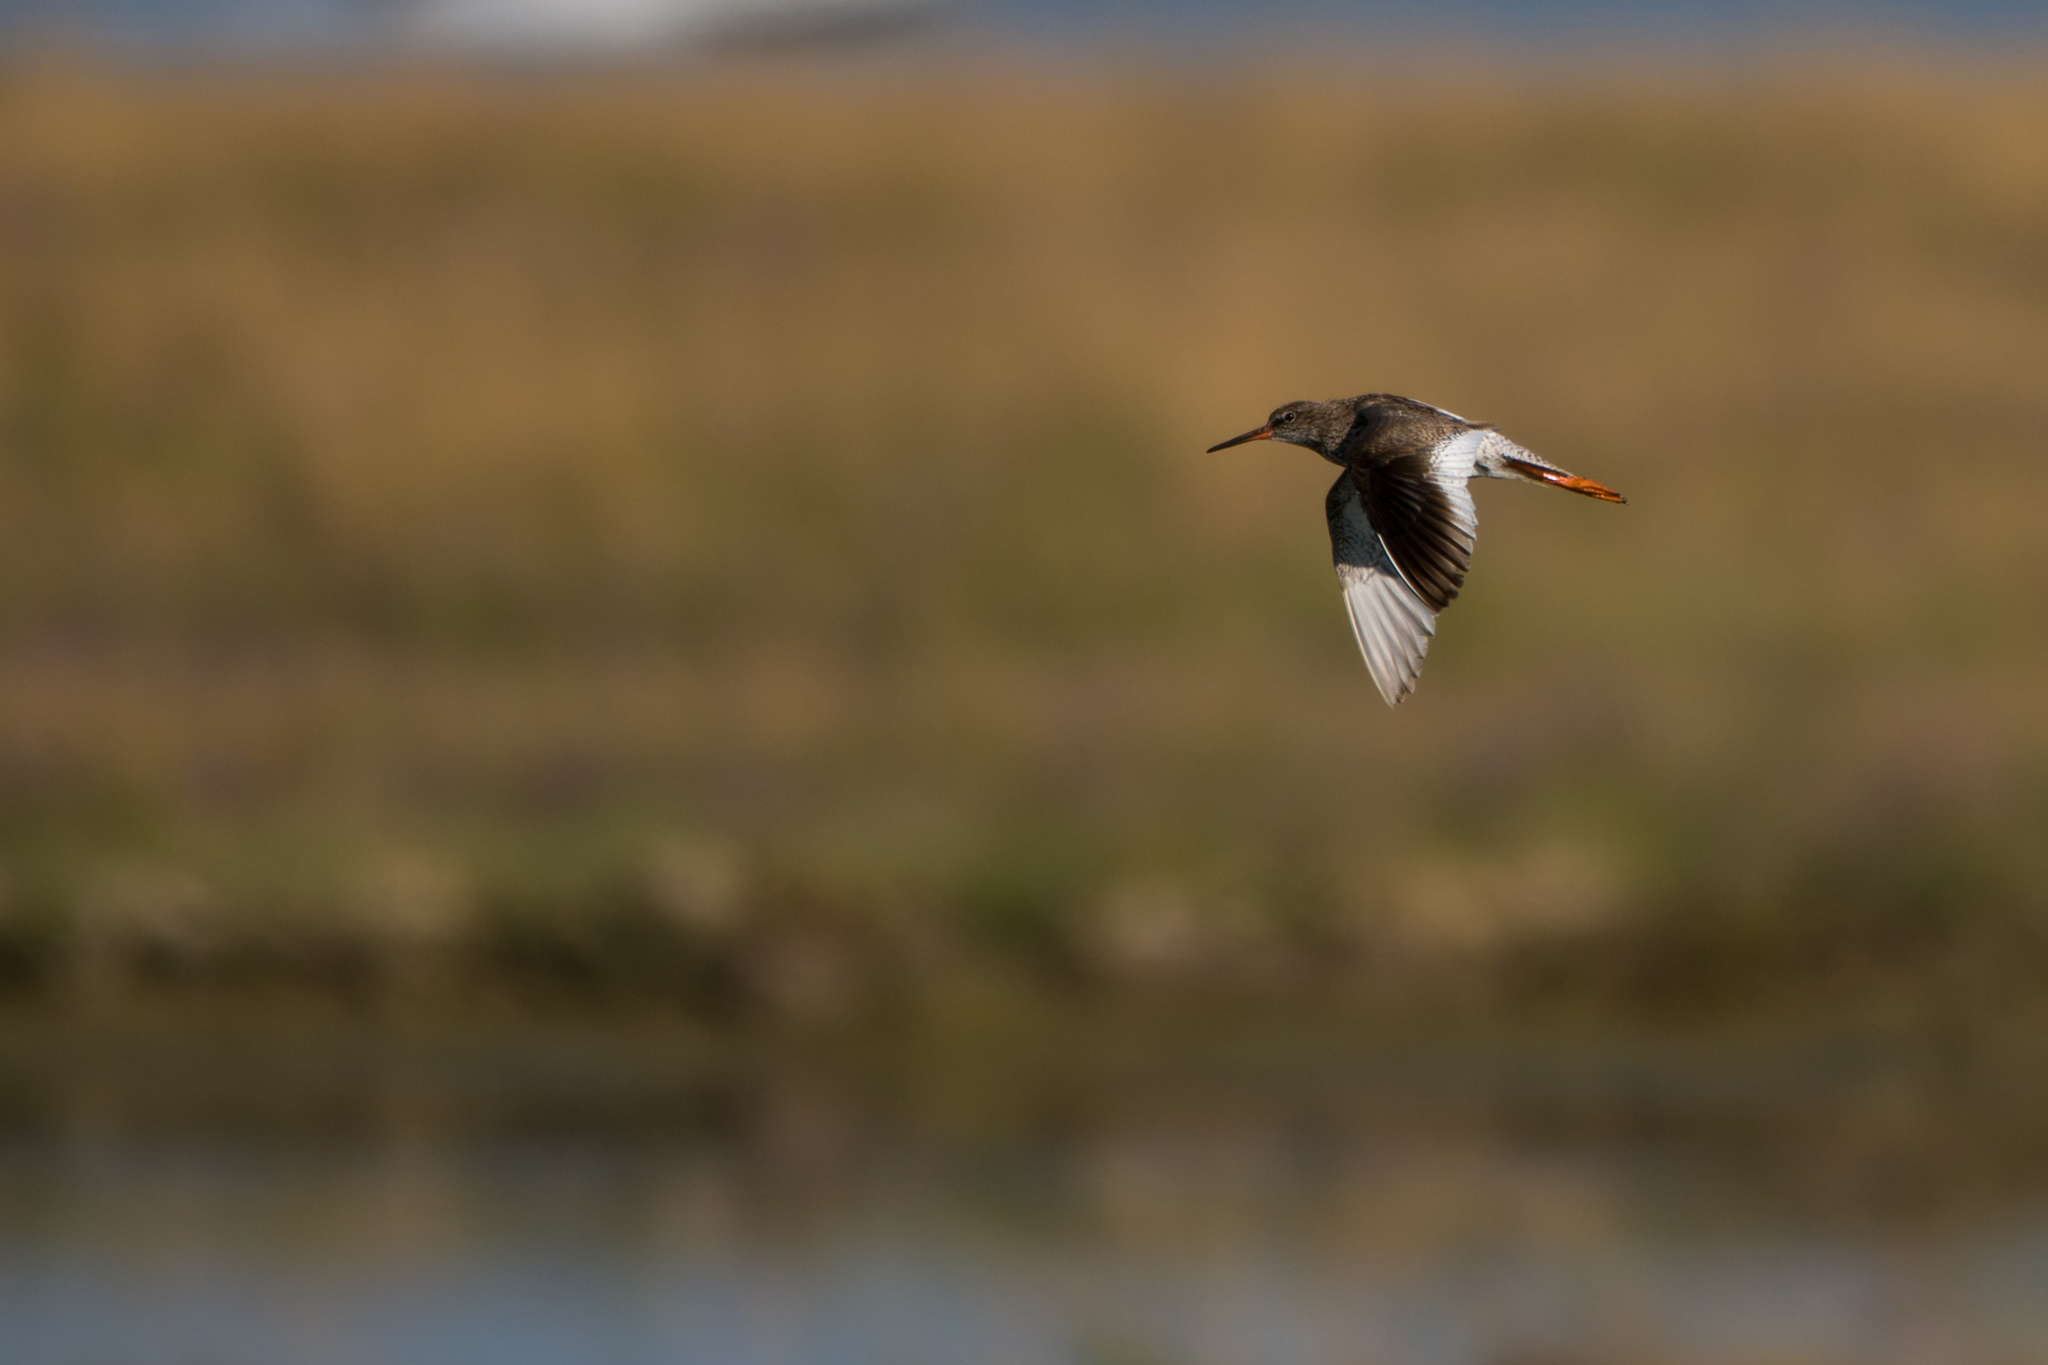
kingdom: Animalia
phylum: Chordata
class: Aves
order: Charadriiformes
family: Scolopacidae
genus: Tringa
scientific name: Tringa totanus
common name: Common redshank
